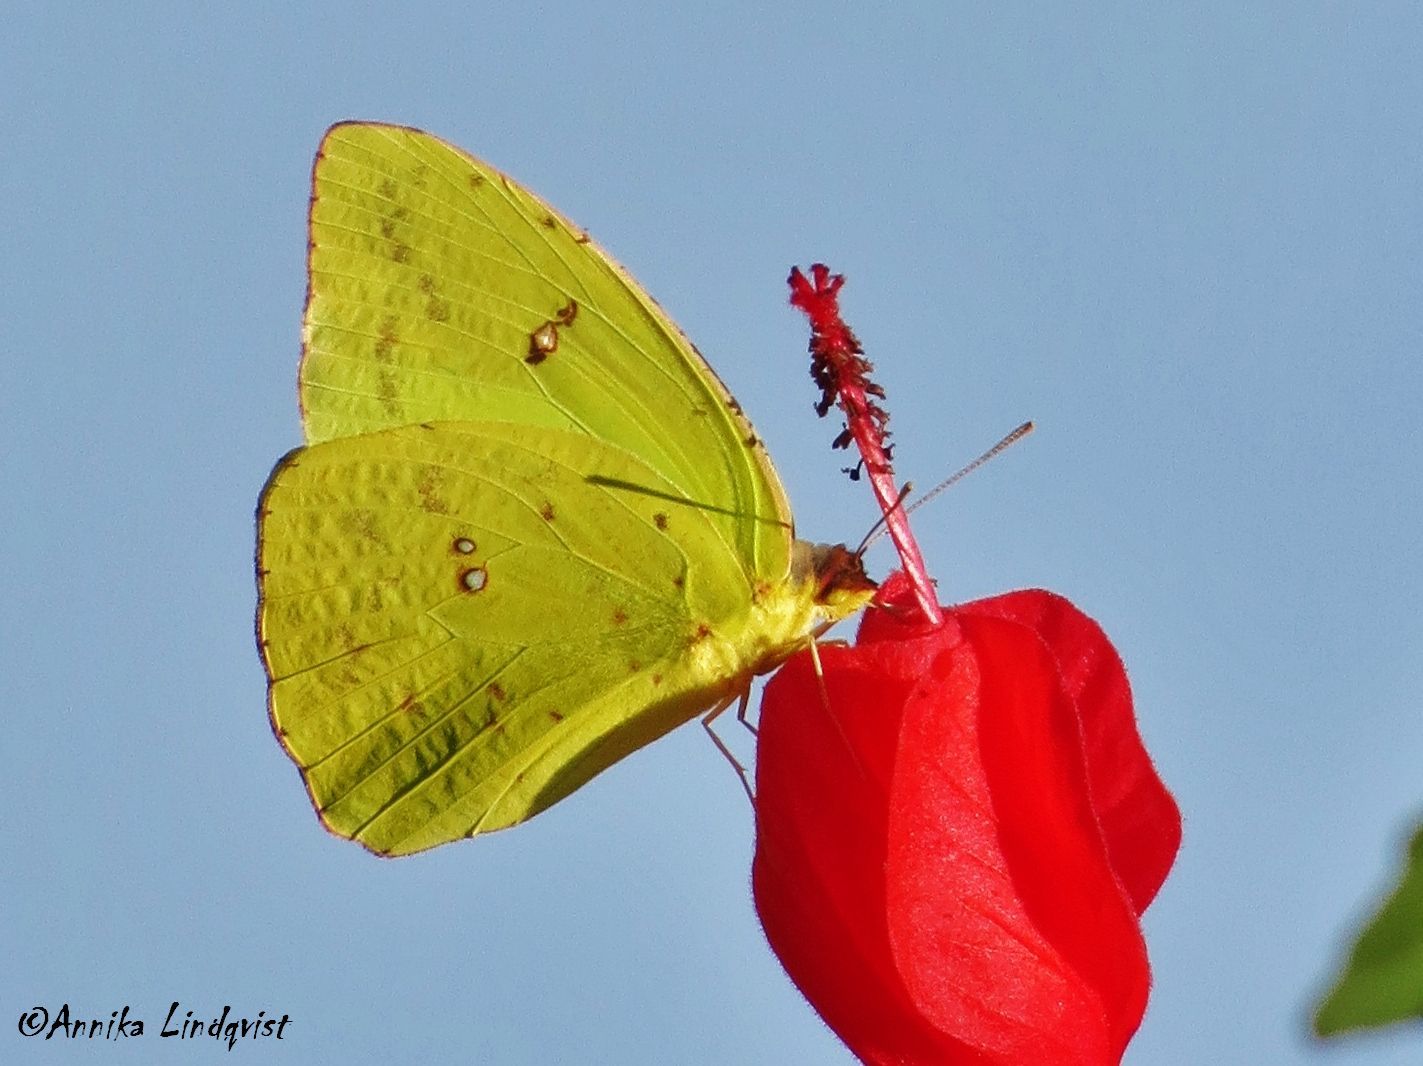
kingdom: Animalia
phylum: Arthropoda
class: Insecta
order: Lepidoptera
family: Pieridae
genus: Phoebis
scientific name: Phoebis sennae
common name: Cloudless sulphur
